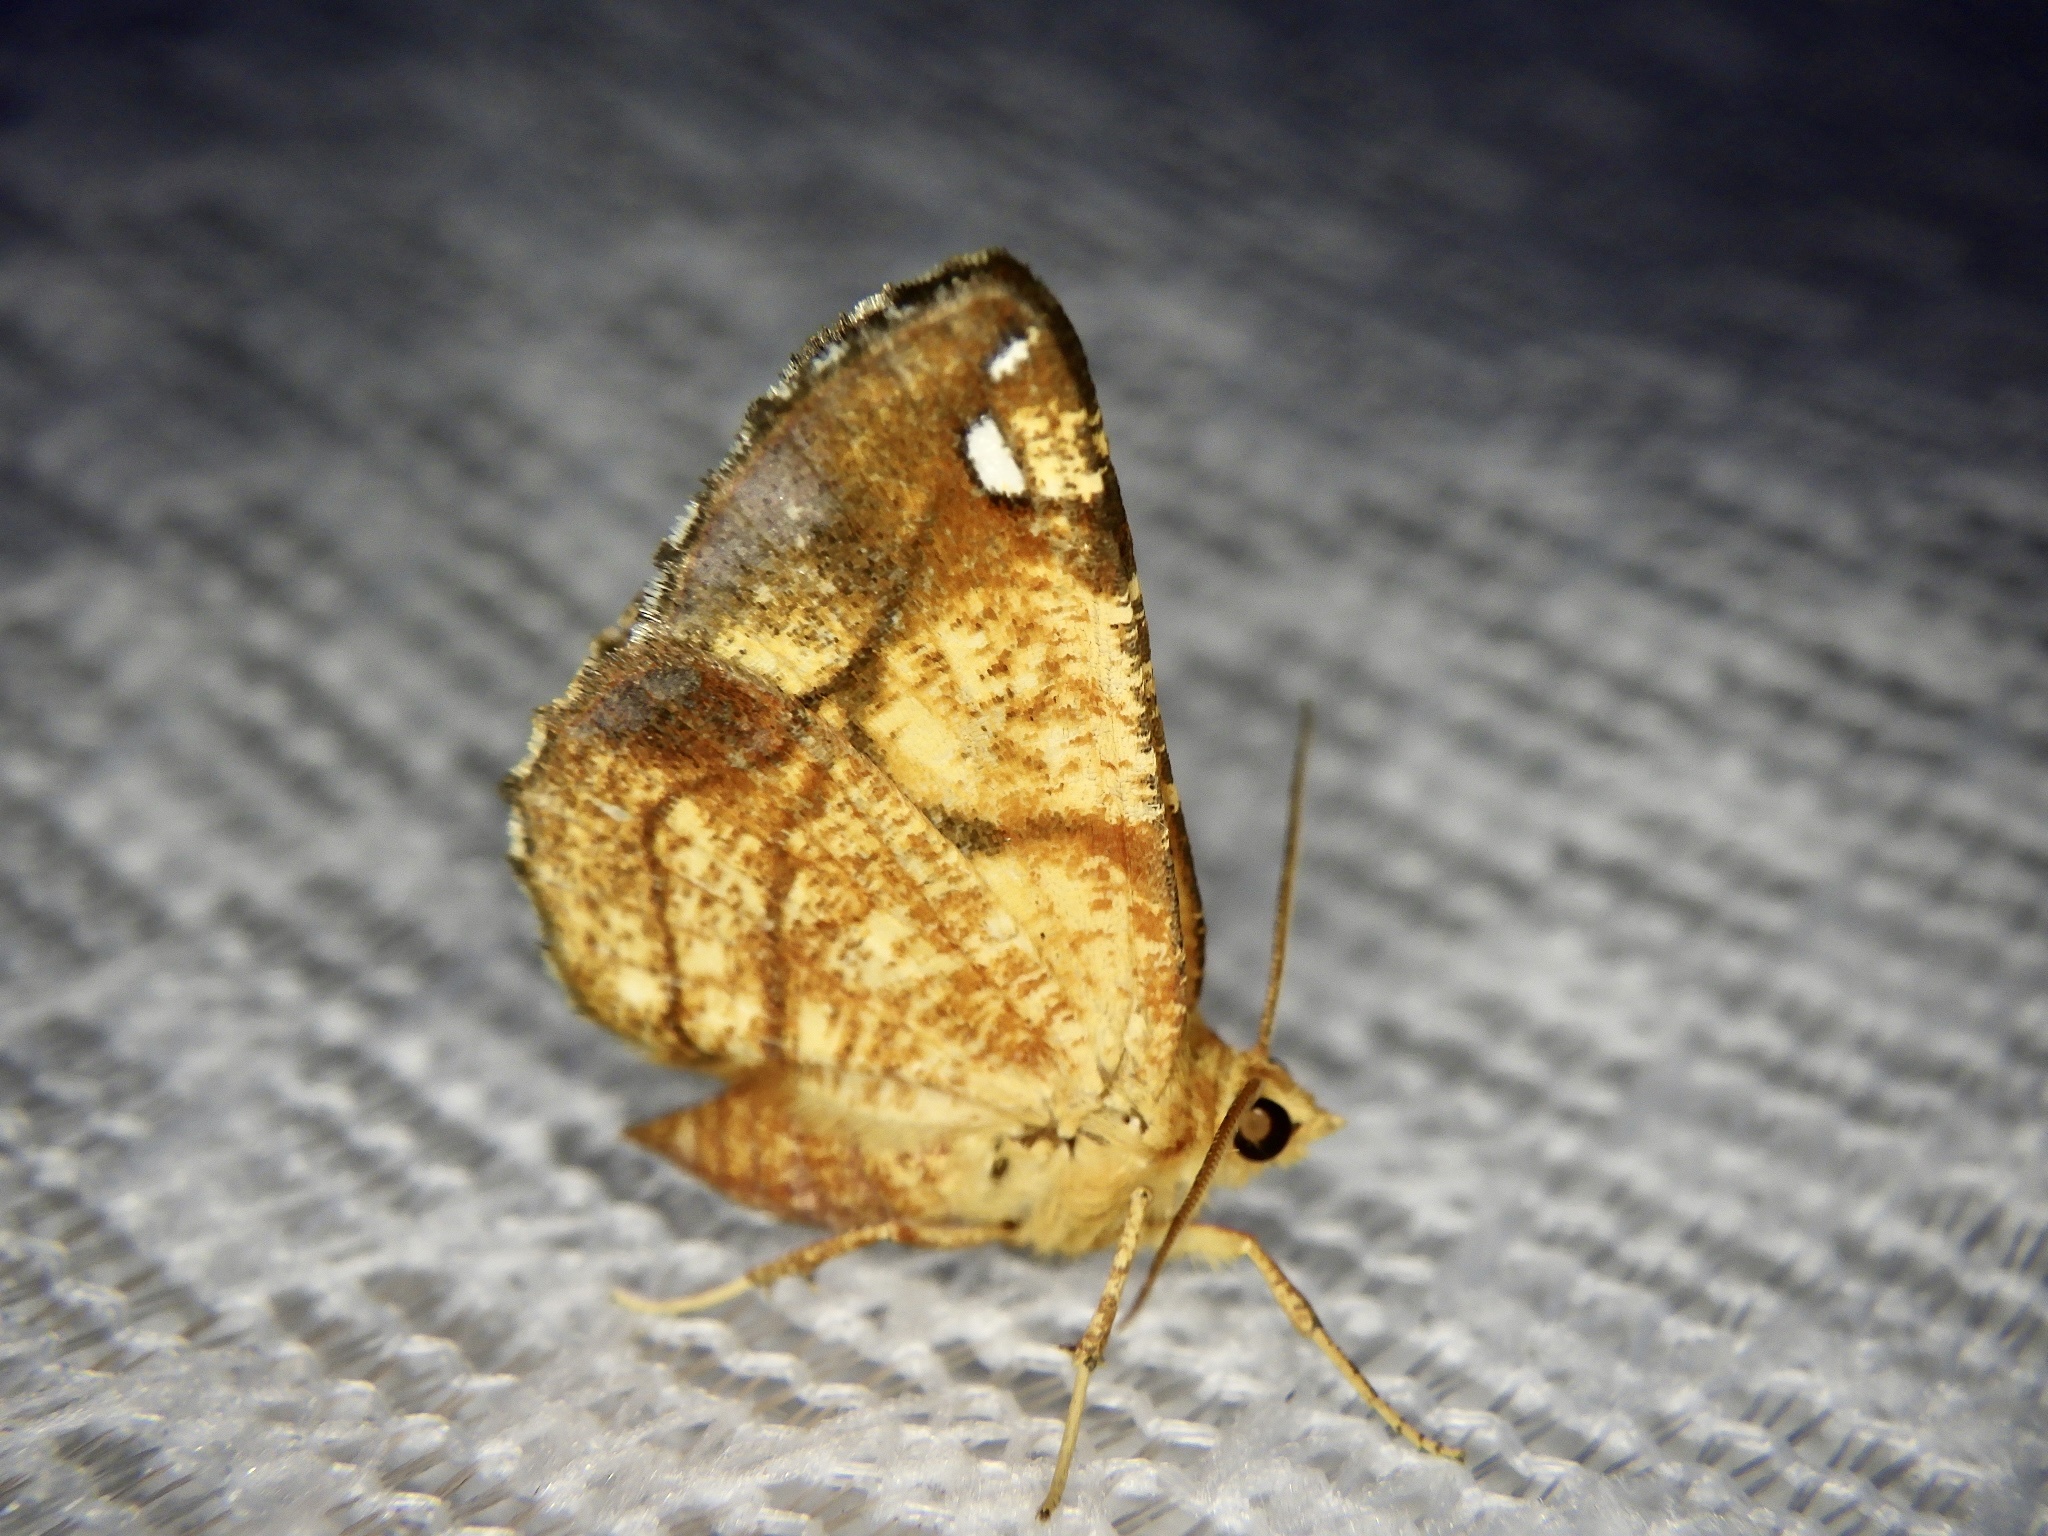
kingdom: Animalia
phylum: Arthropoda
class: Insecta
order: Lepidoptera
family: Geometridae
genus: Epholca
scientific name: Epholca arenosa
